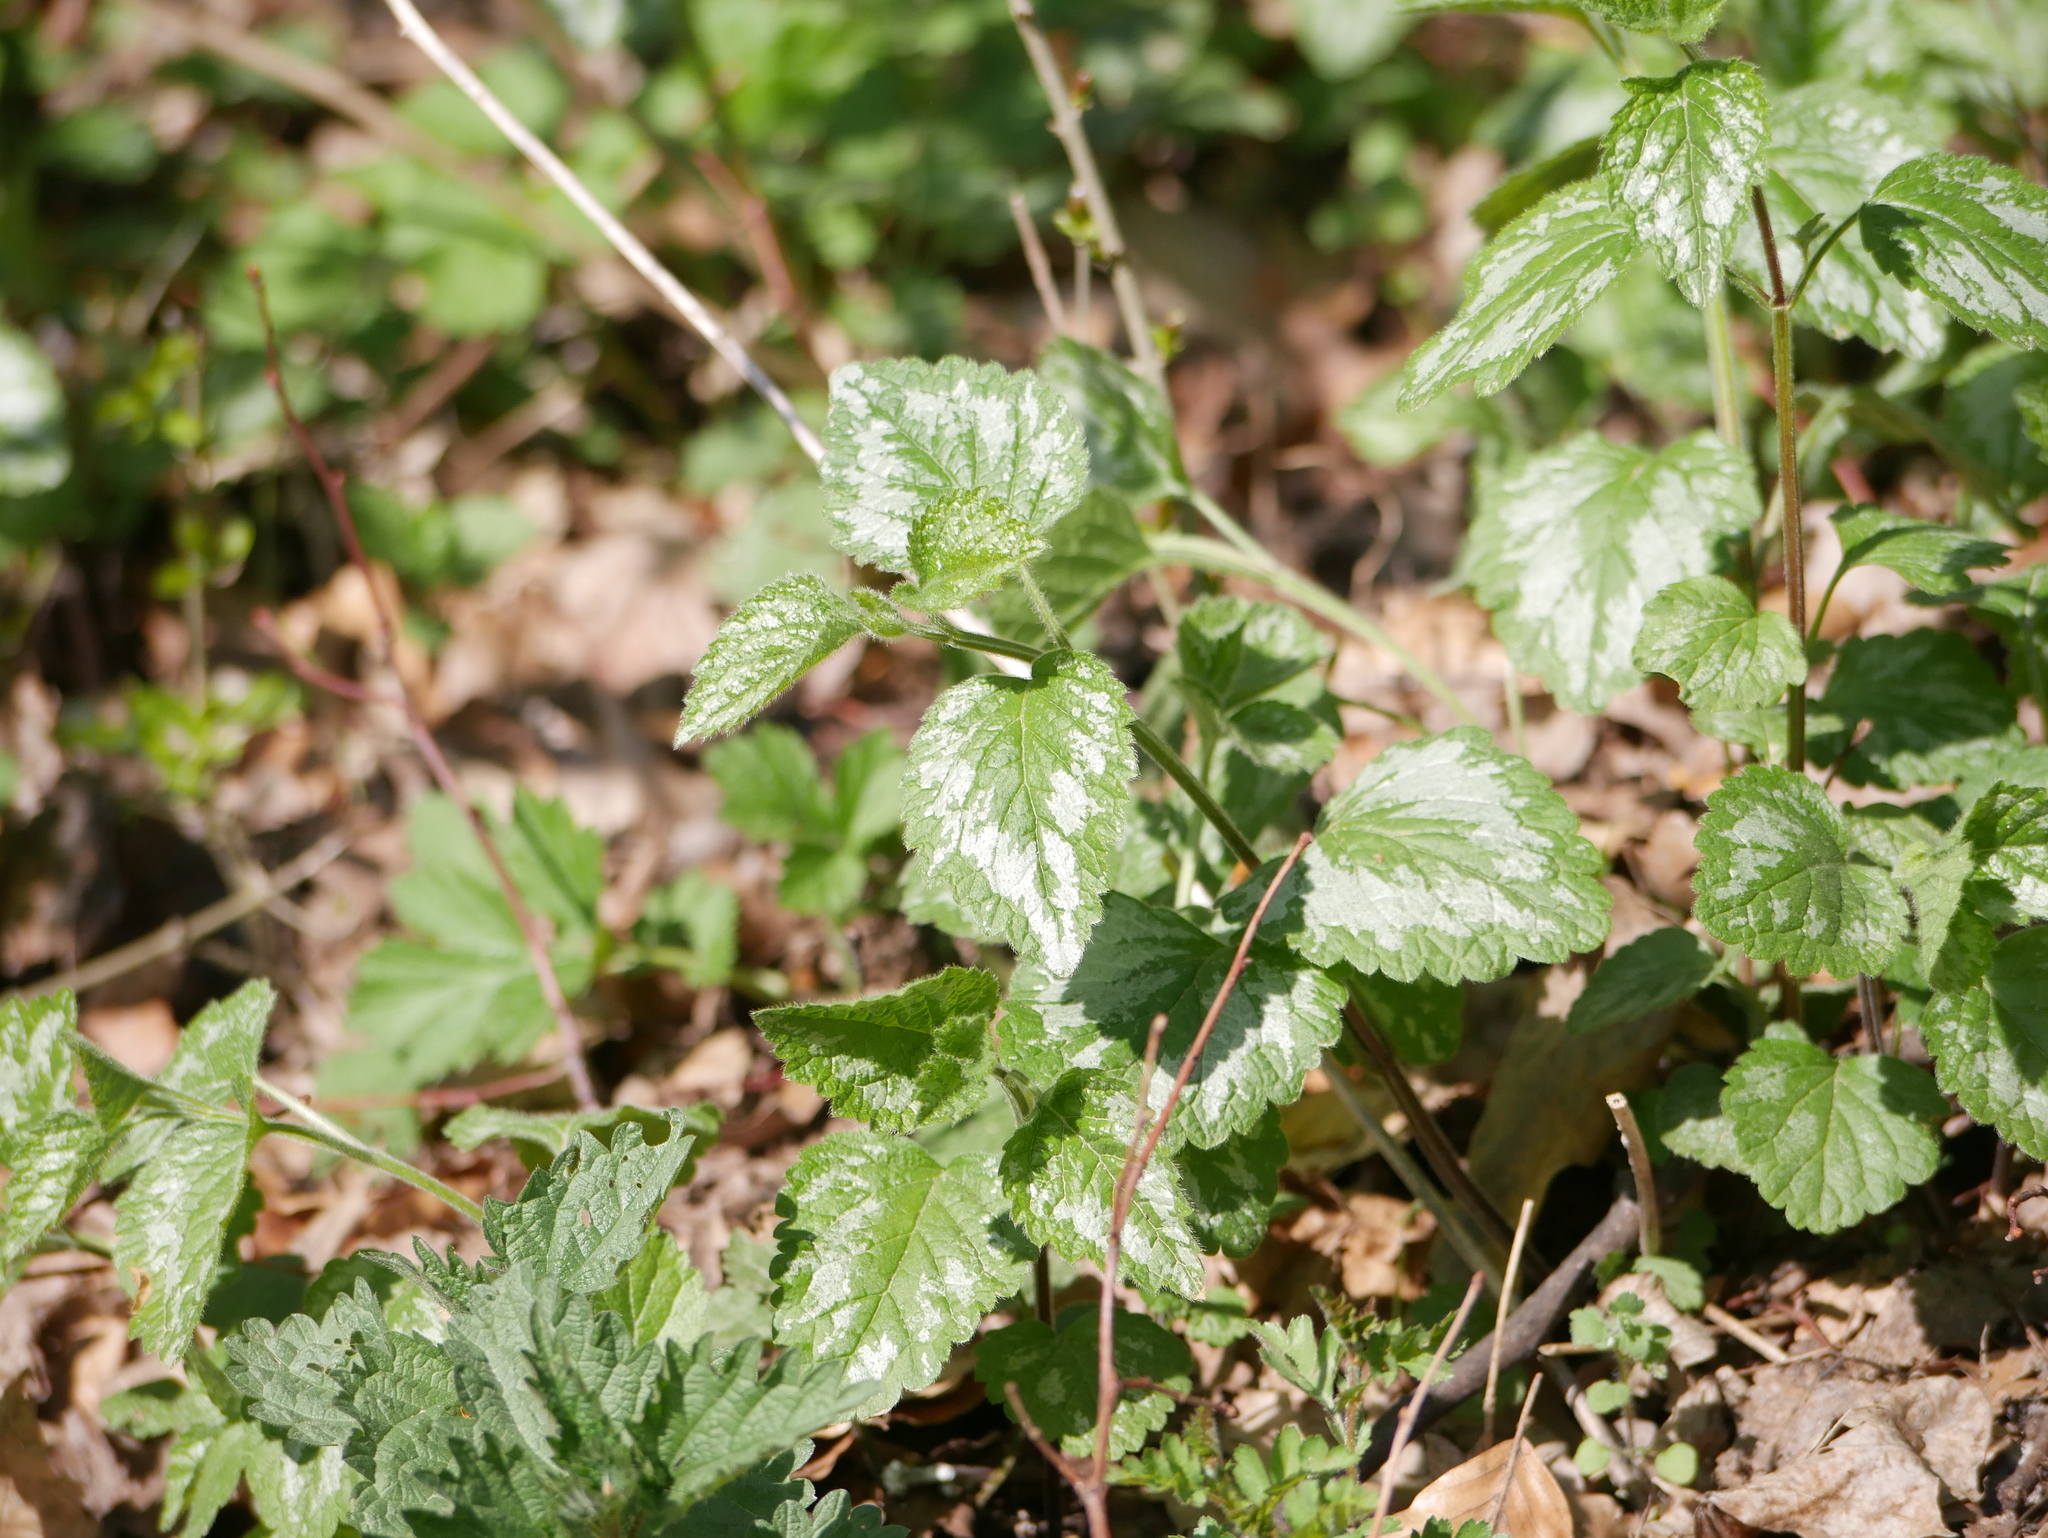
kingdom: Plantae
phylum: Tracheophyta
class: Magnoliopsida
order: Lamiales
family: Lamiaceae
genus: Lamium
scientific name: Lamium galeobdolon
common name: Yellow archangel
